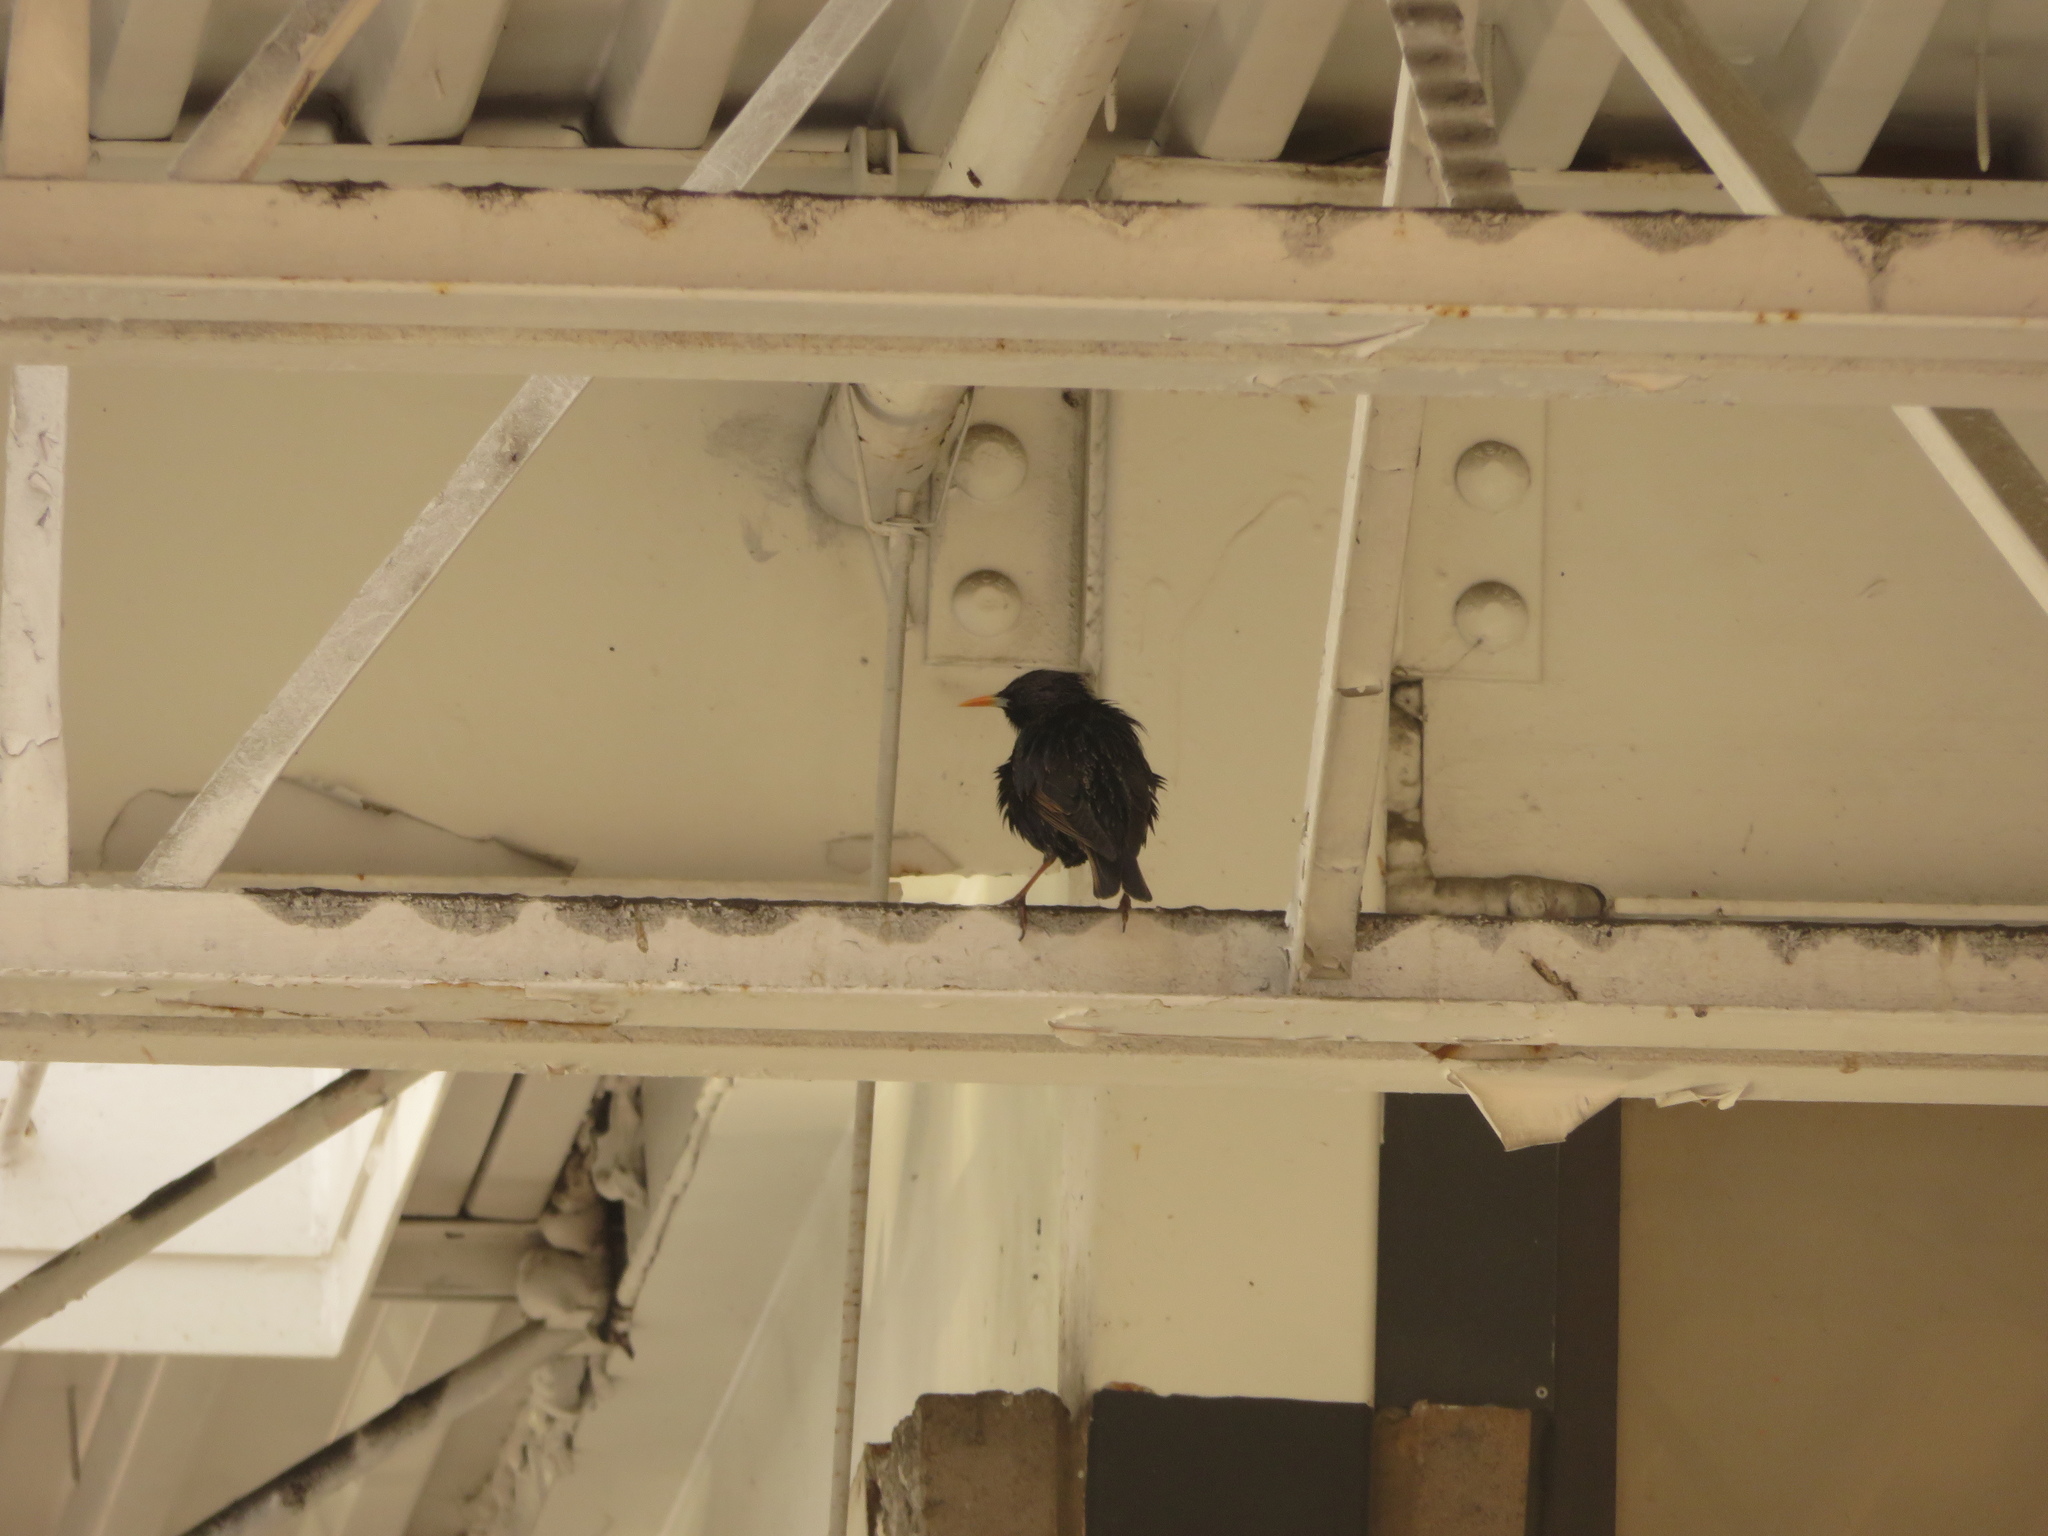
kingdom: Animalia
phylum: Chordata
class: Aves
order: Passeriformes
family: Sturnidae
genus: Sturnus
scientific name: Sturnus vulgaris
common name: Common starling
